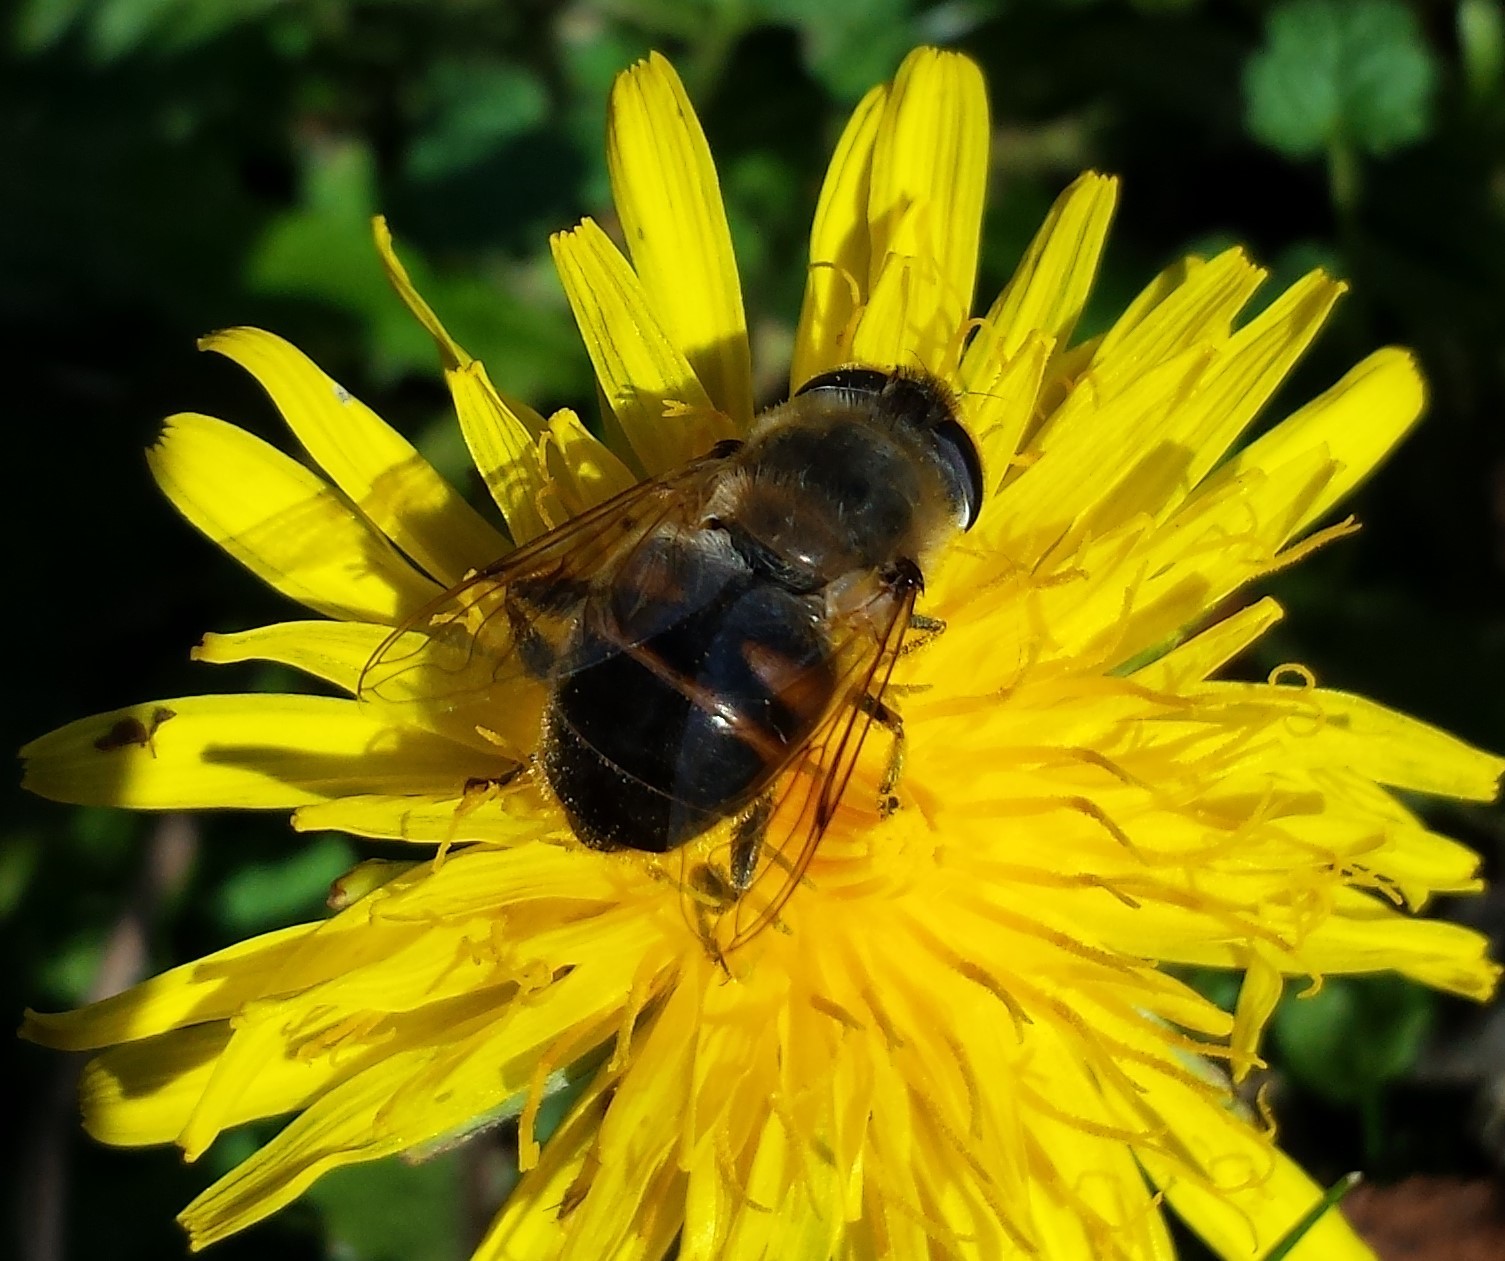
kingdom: Animalia
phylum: Arthropoda
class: Insecta
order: Diptera
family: Syrphidae
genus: Eristalis
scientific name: Eristalis tenax
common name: Drone fly
